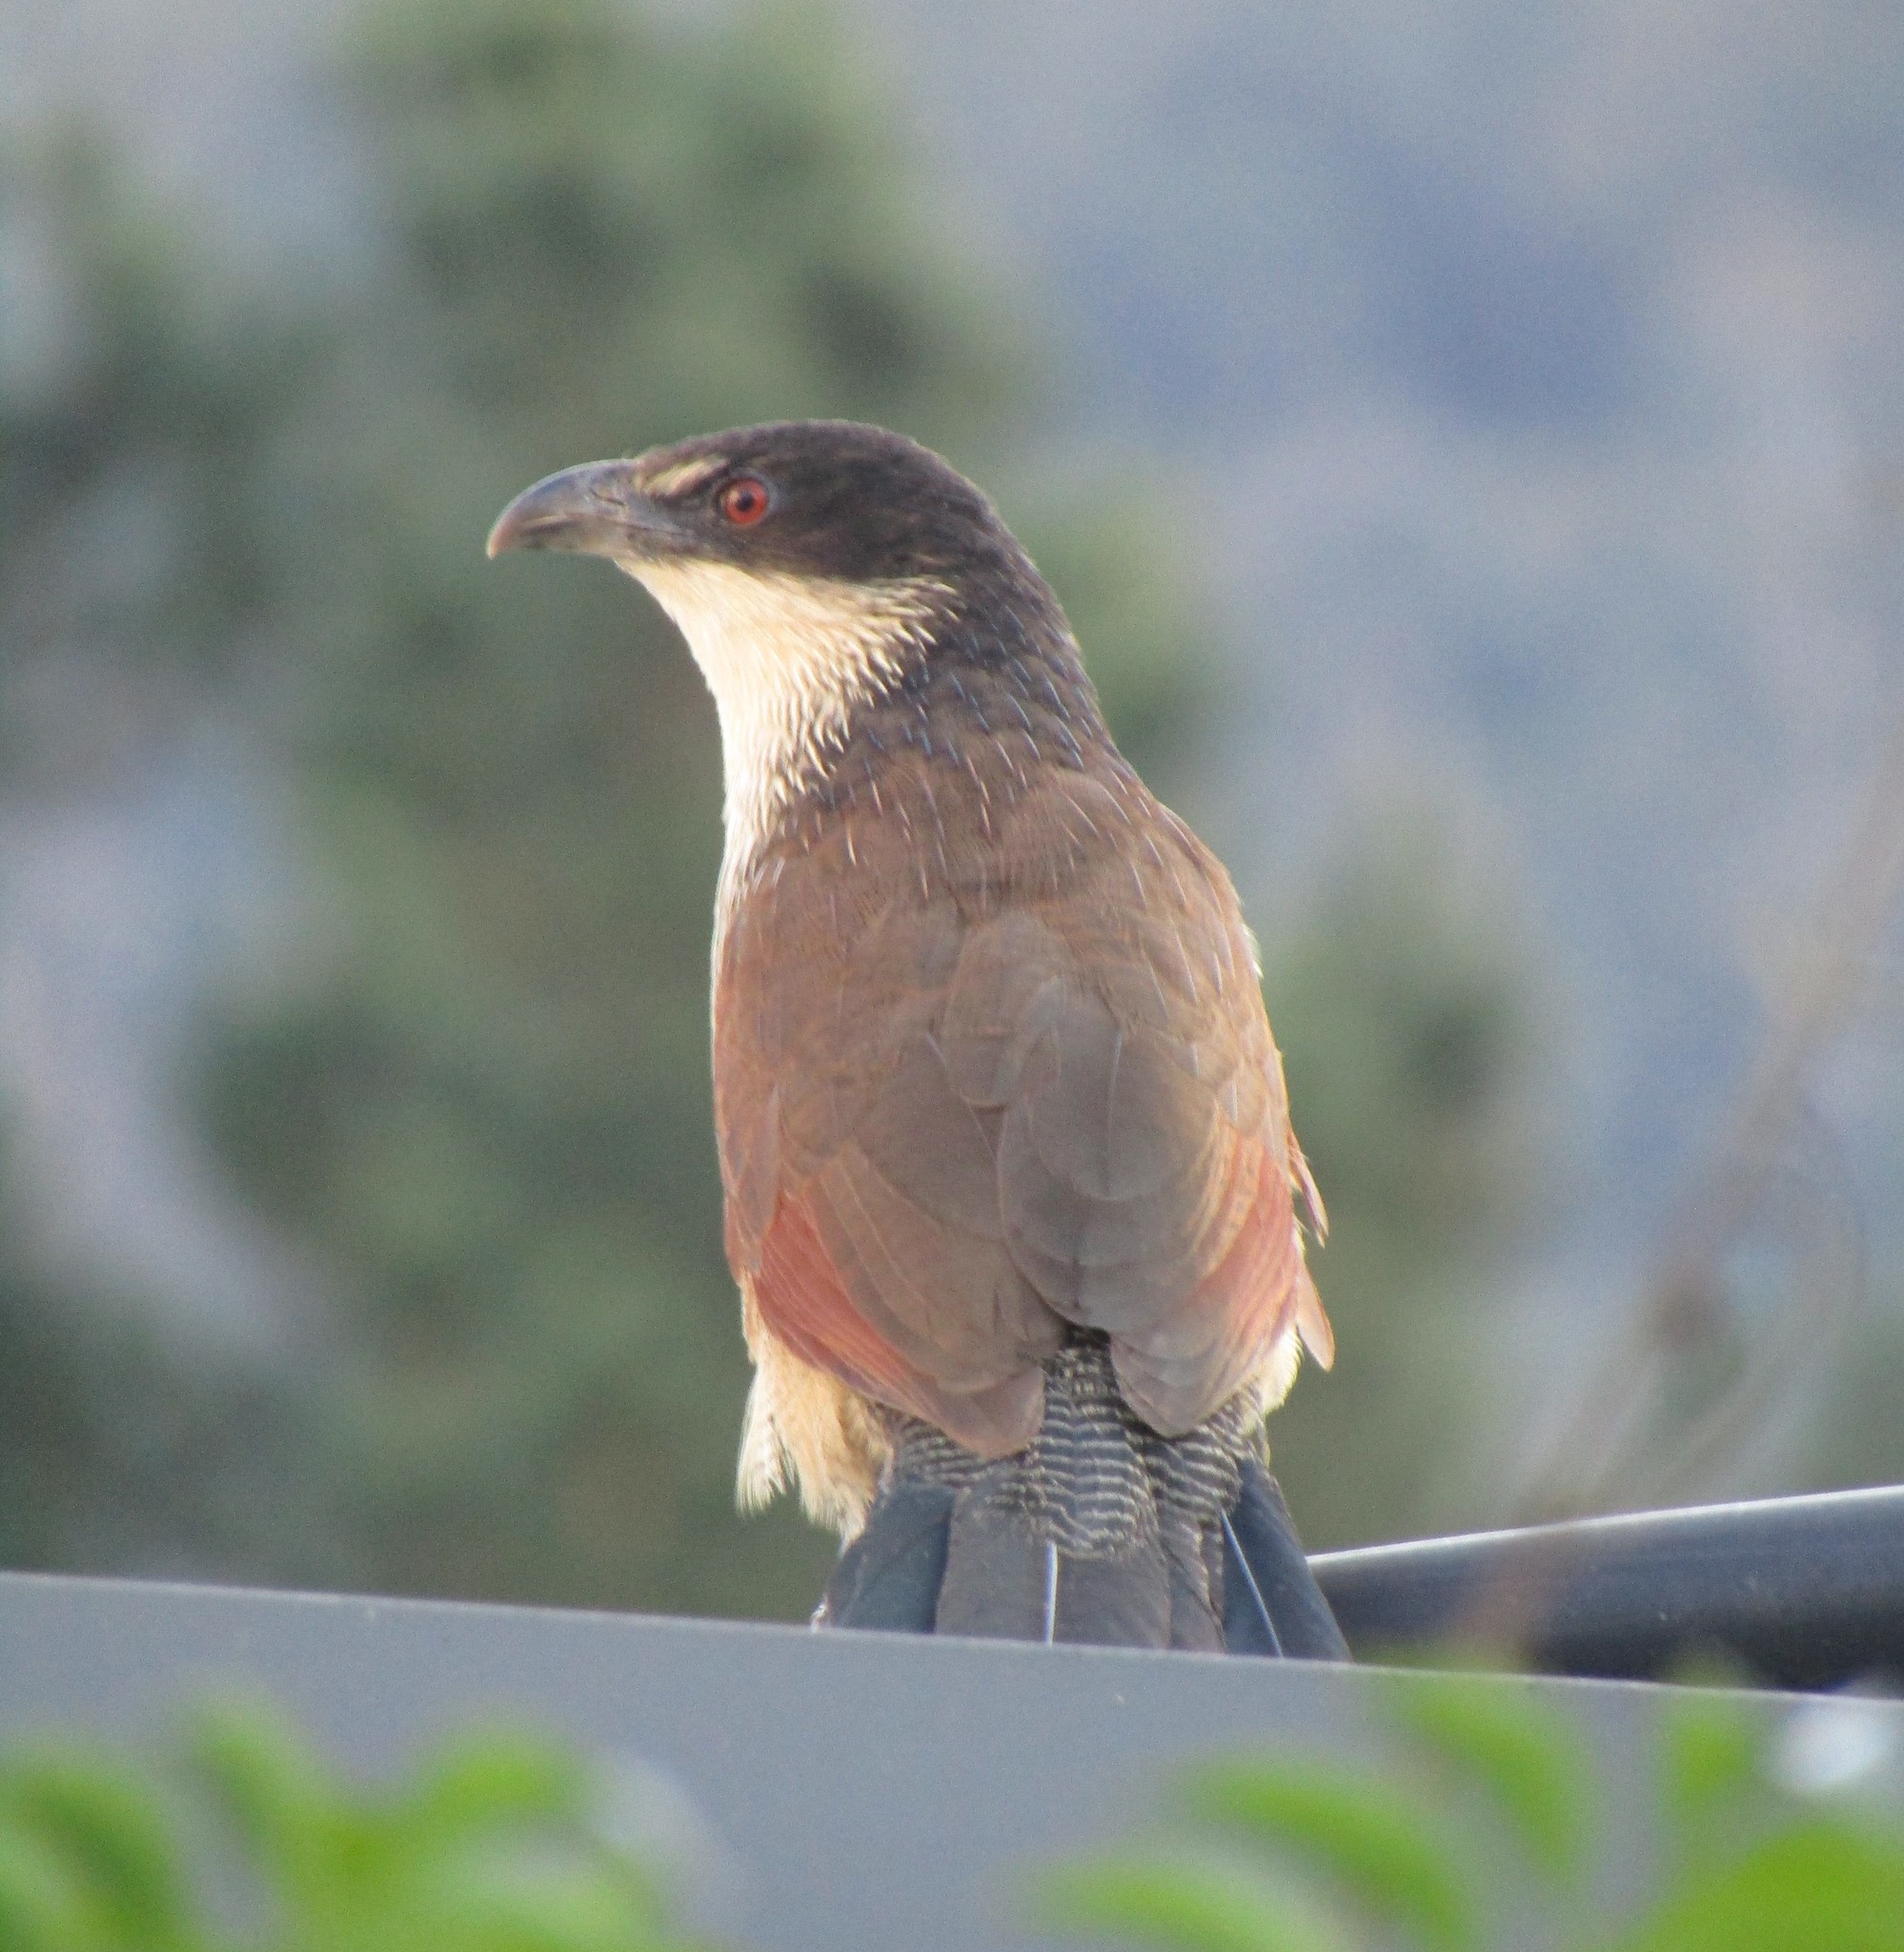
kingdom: Animalia
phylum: Chordata
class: Aves
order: Cuculiformes
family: Cuculidae
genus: Centropus
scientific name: Centropus superciliosus
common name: White-browed coucal
